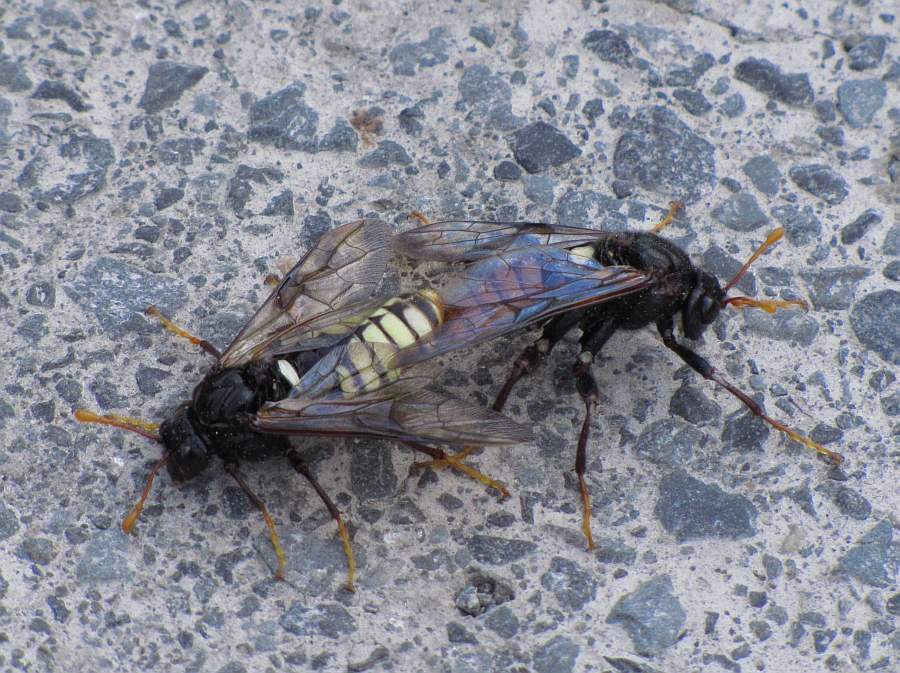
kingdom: Animalia
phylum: Arthropoda
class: Insecta
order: Hymenoptera
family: Cimbicidae
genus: Cimbex
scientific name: Cimbex americana
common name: Elm sawfly
